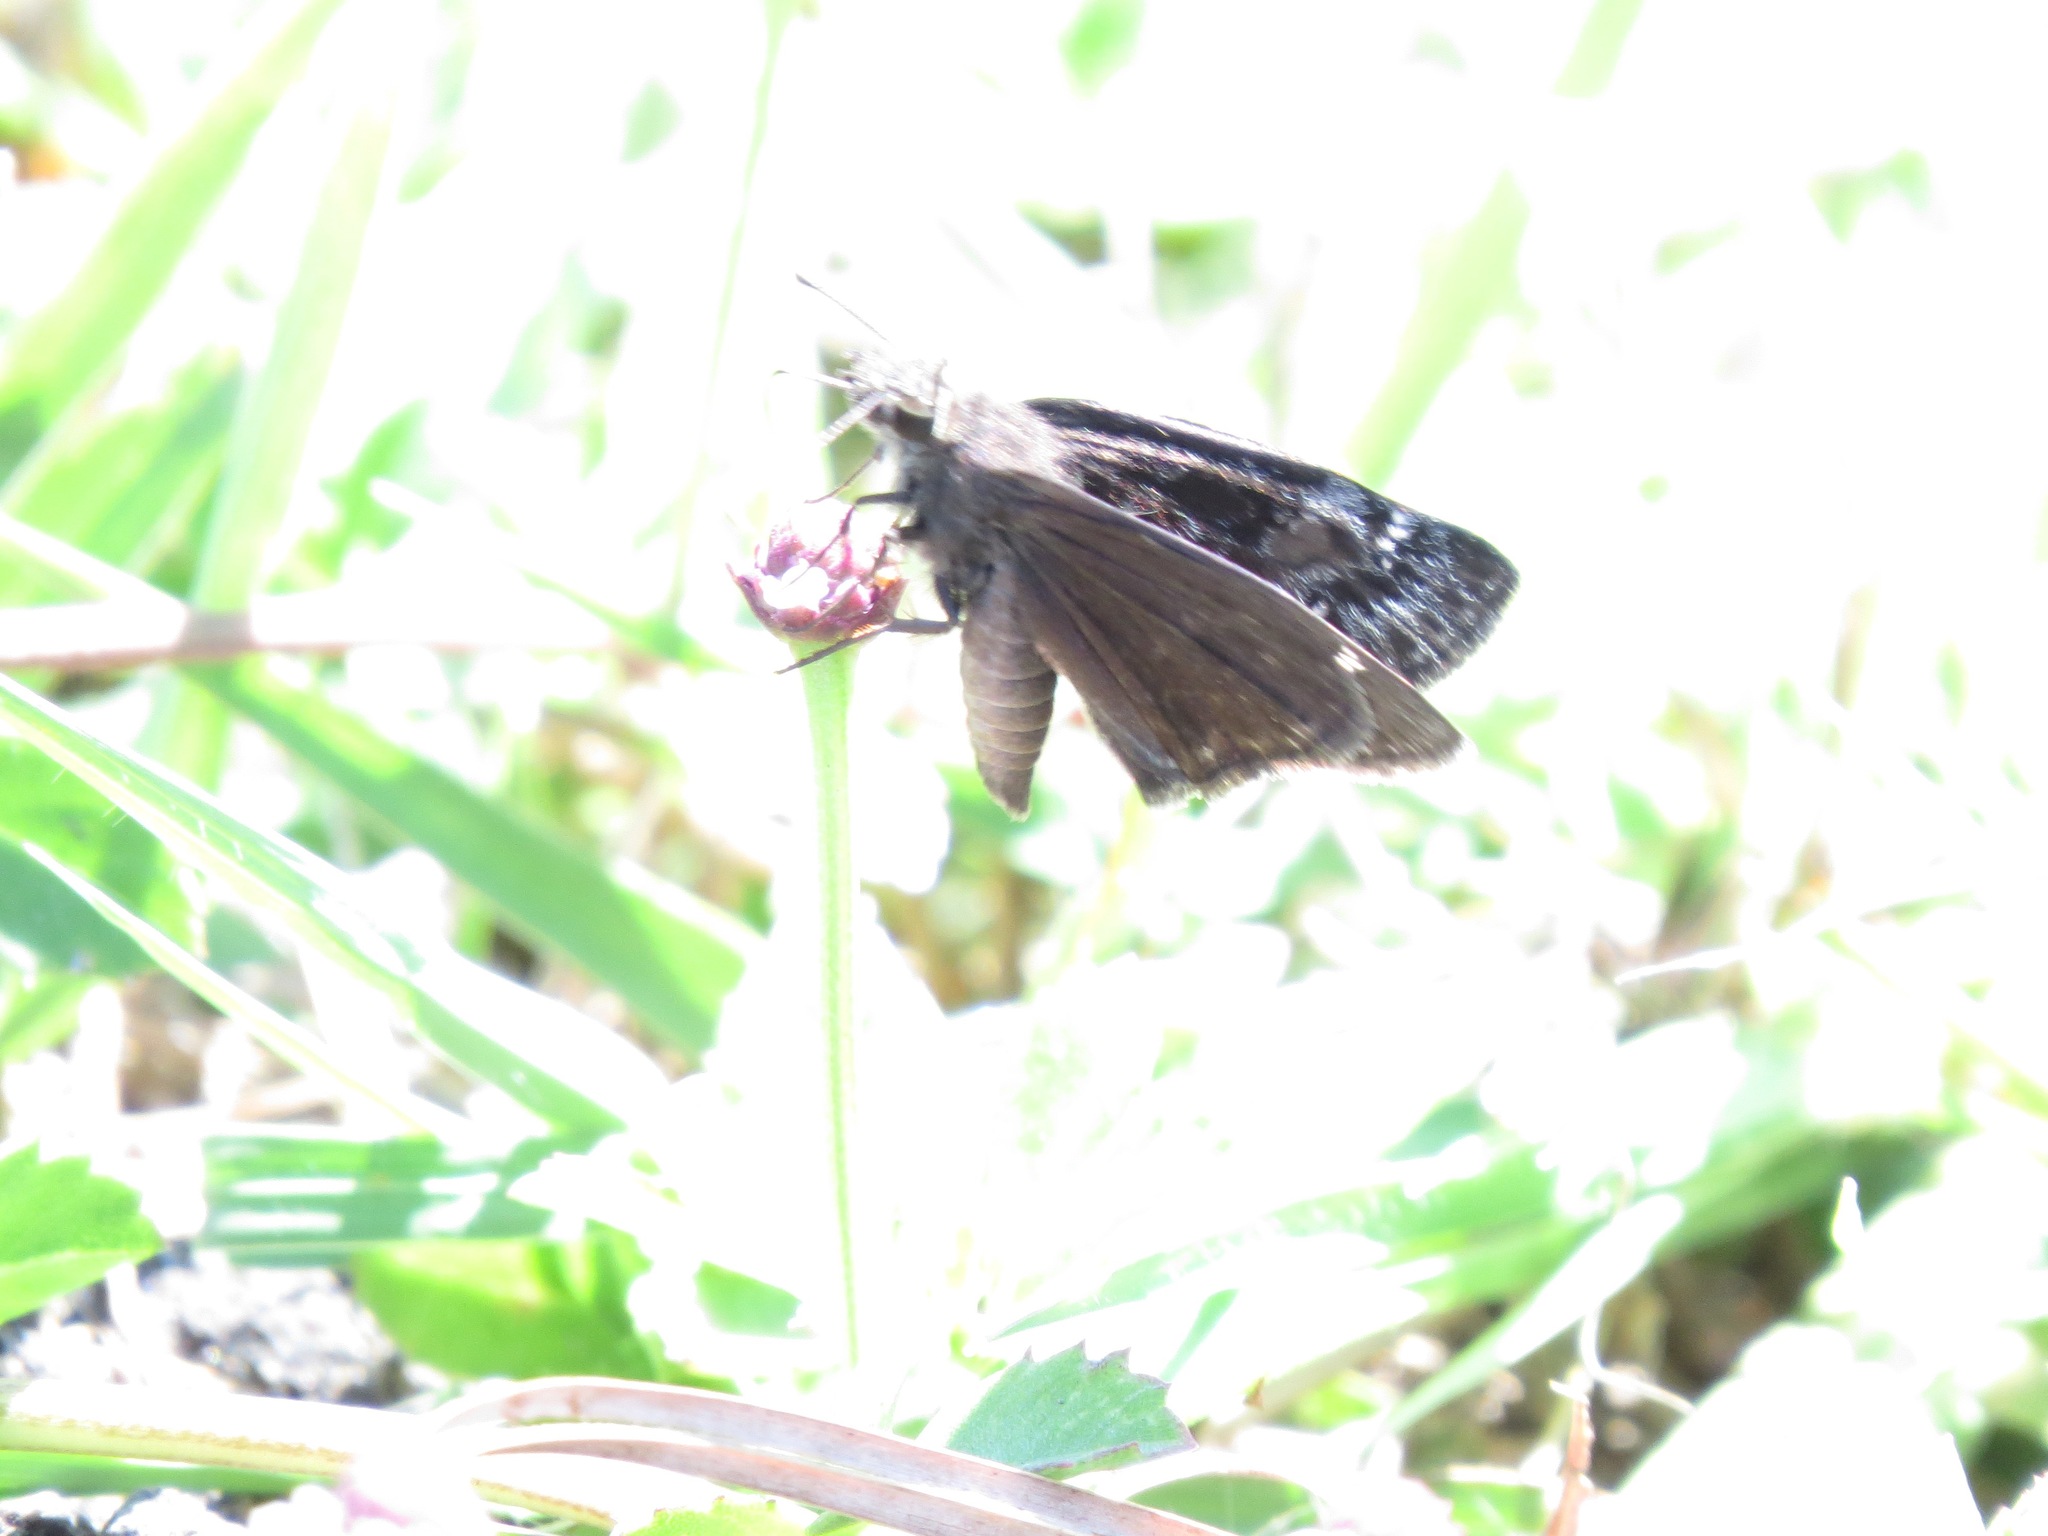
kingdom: Animalia
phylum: Arthropoda
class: Insecta
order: Lepidoptera
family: Hesperiidae
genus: Erynnis
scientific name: Erynnis horatius
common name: Horace's duskywing
